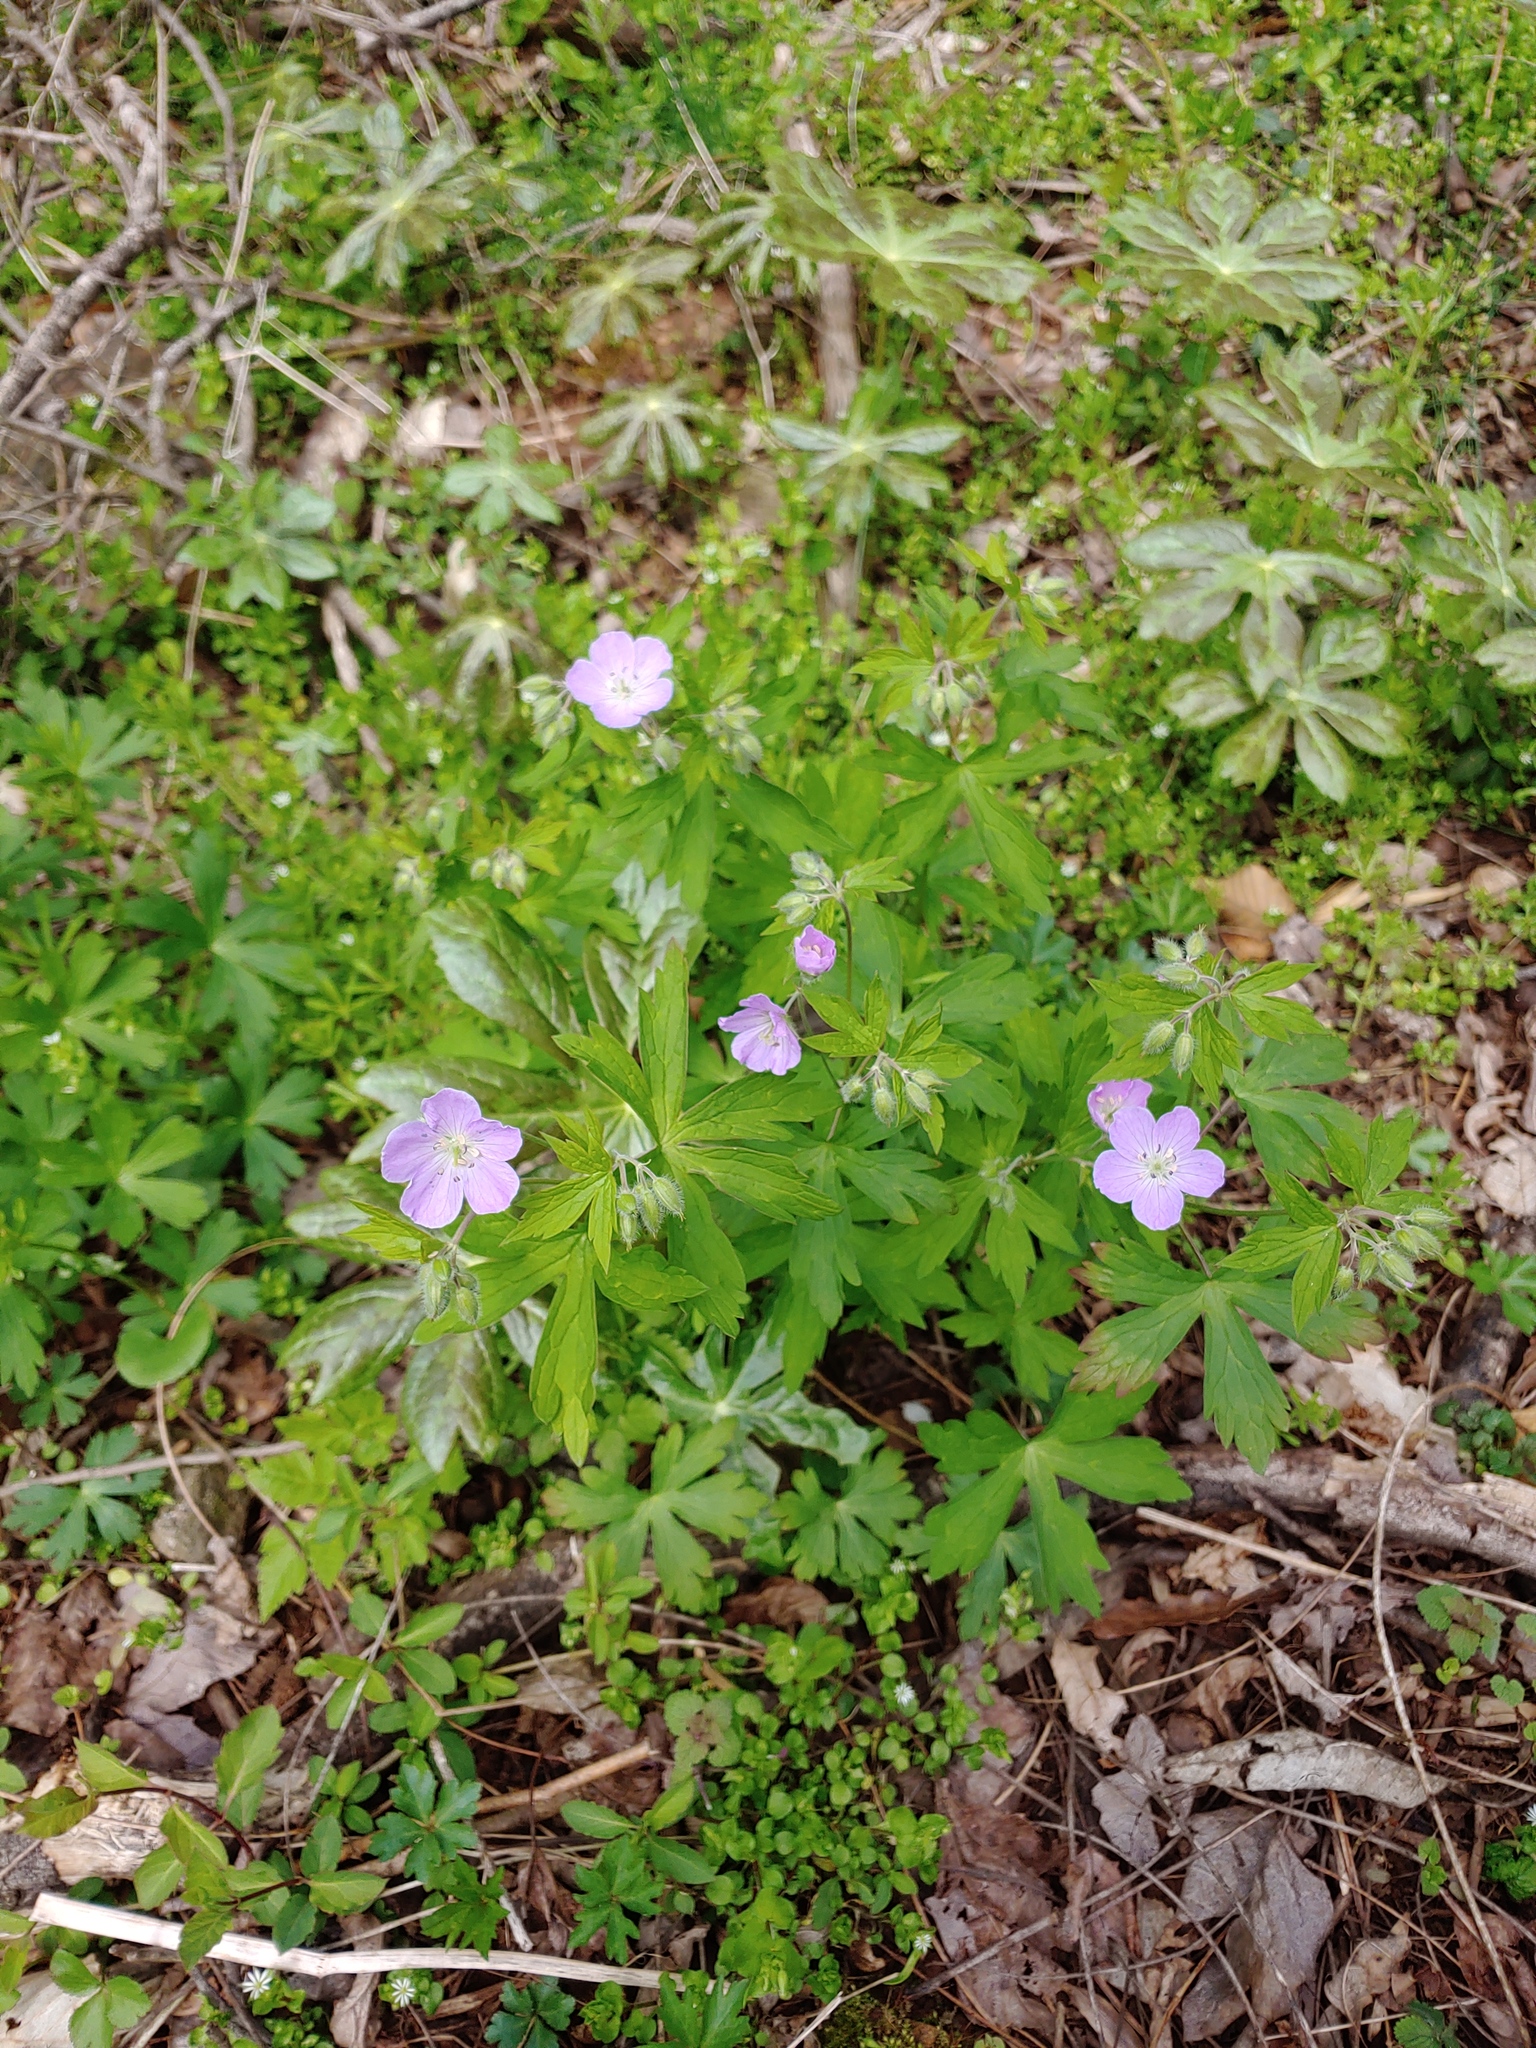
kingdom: Plantae
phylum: Tracheophyta
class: Magnoliopsida
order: Geraniales
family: Geraniaceae
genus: Geranium
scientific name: Geranium maculatum
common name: Spotted geranium
